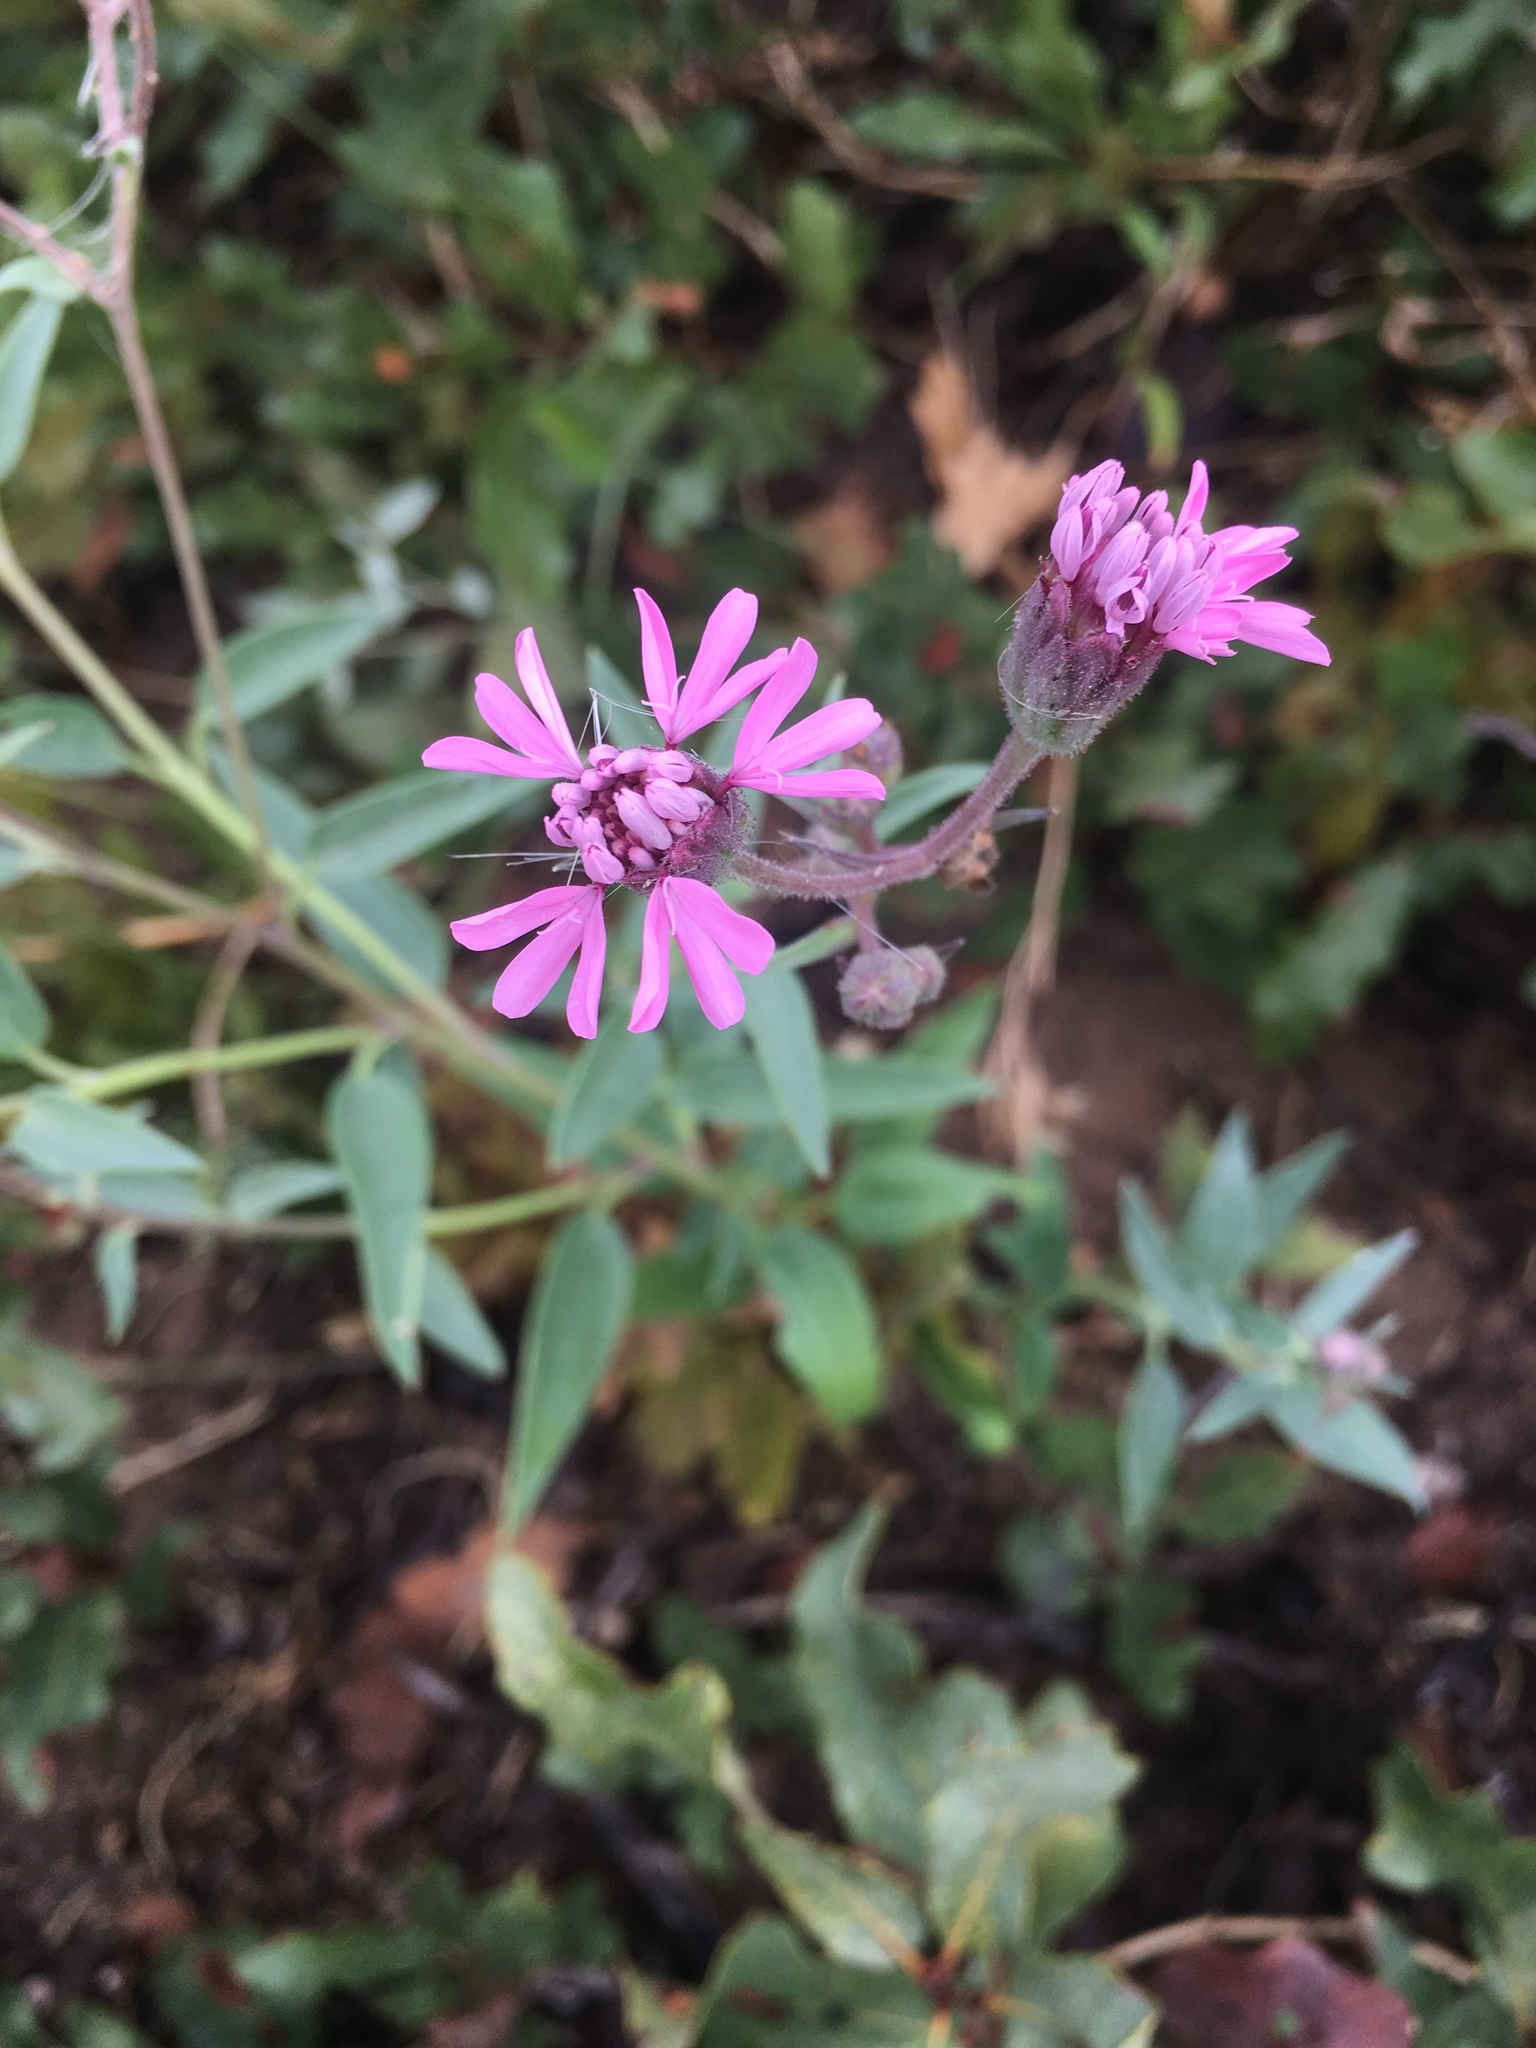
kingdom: Plantae
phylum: Tracheophyta
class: Magnoliopsida
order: Asterales
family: Asteraceae
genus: Palafoxia
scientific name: Palafoxia sphacelata
